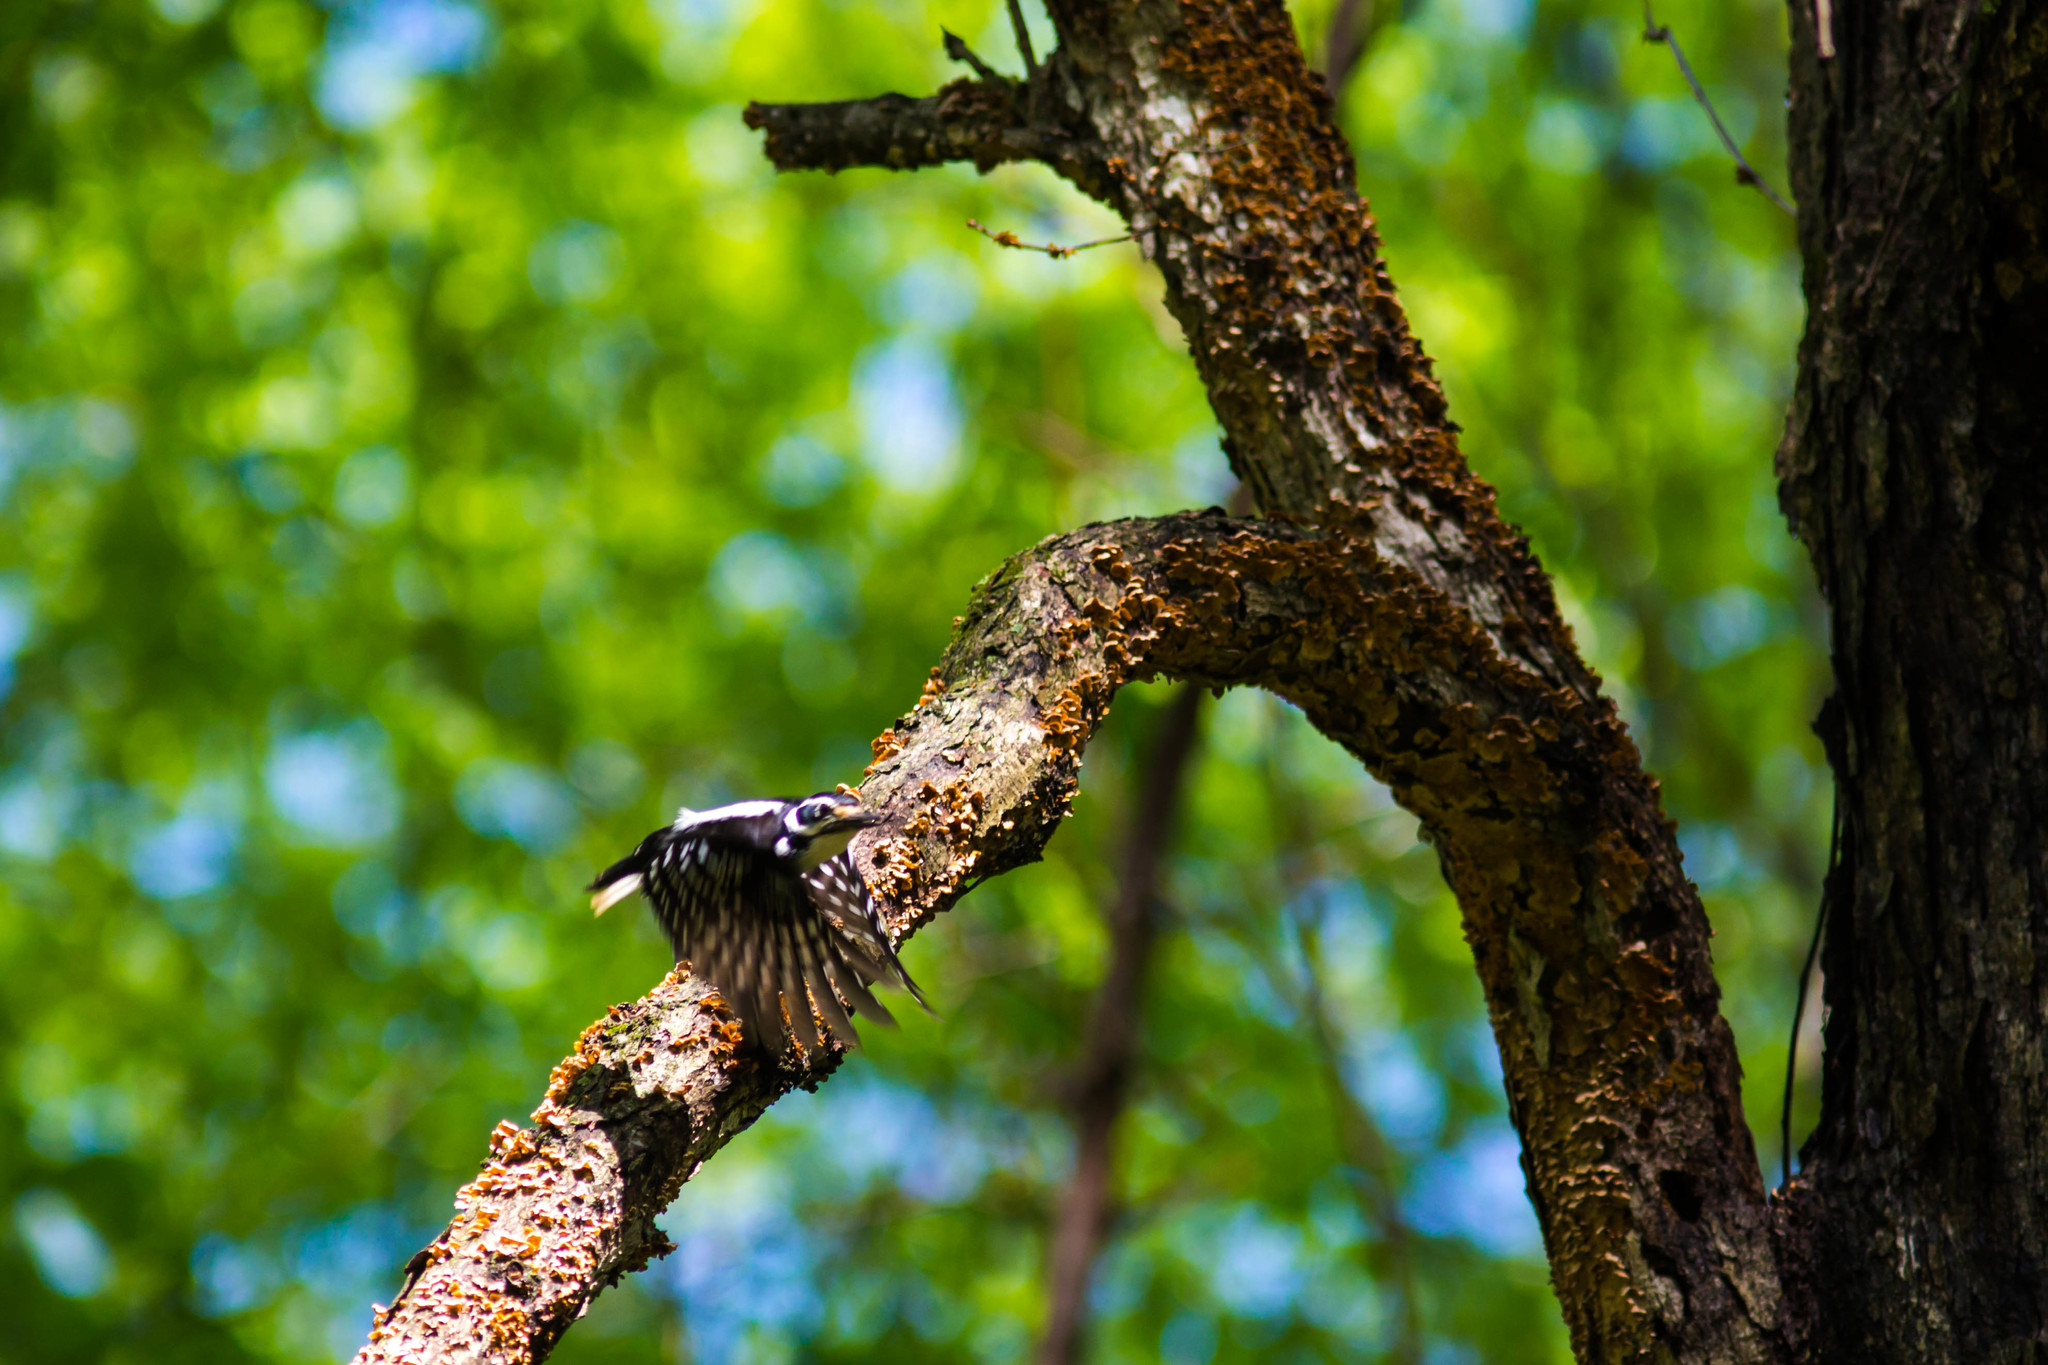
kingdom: Animalia
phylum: Chordata
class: Aves
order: Piciformes
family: Picidae
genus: Leuconotopicus
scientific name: Leuconotopicus villosus
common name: Hairy woodpecker
